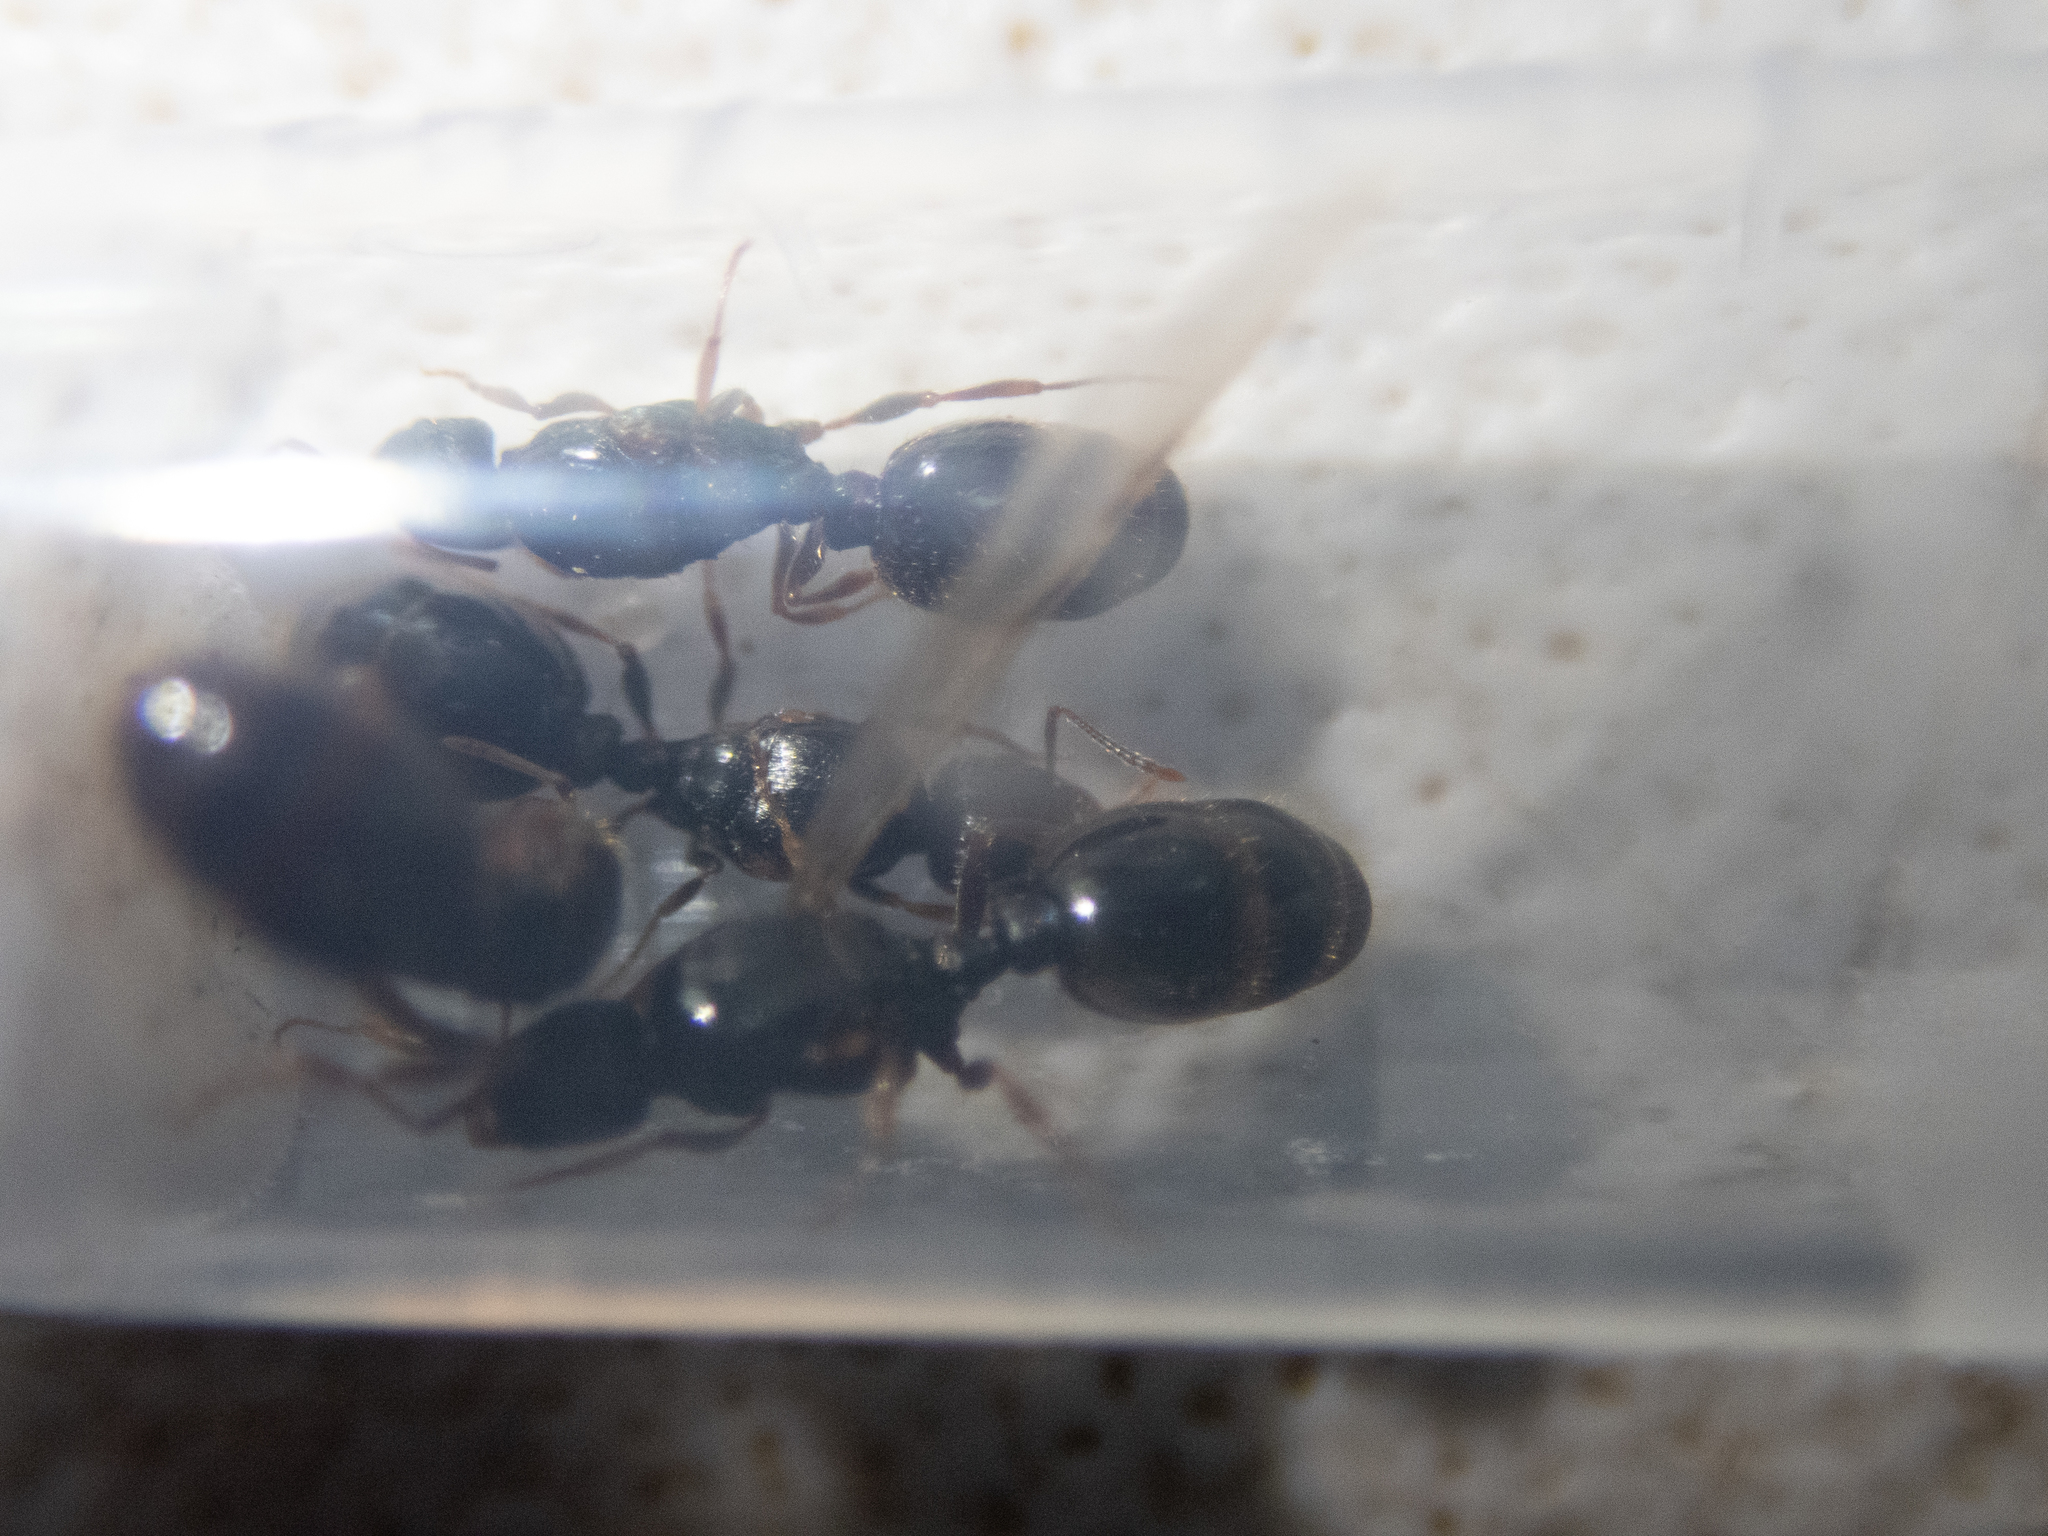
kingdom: Animalia
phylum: Arthropoda
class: Insecta
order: Hymenoptera
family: Formicidae
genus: Tetramorium
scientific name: Tetramorium immigrans
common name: Pavement ant
